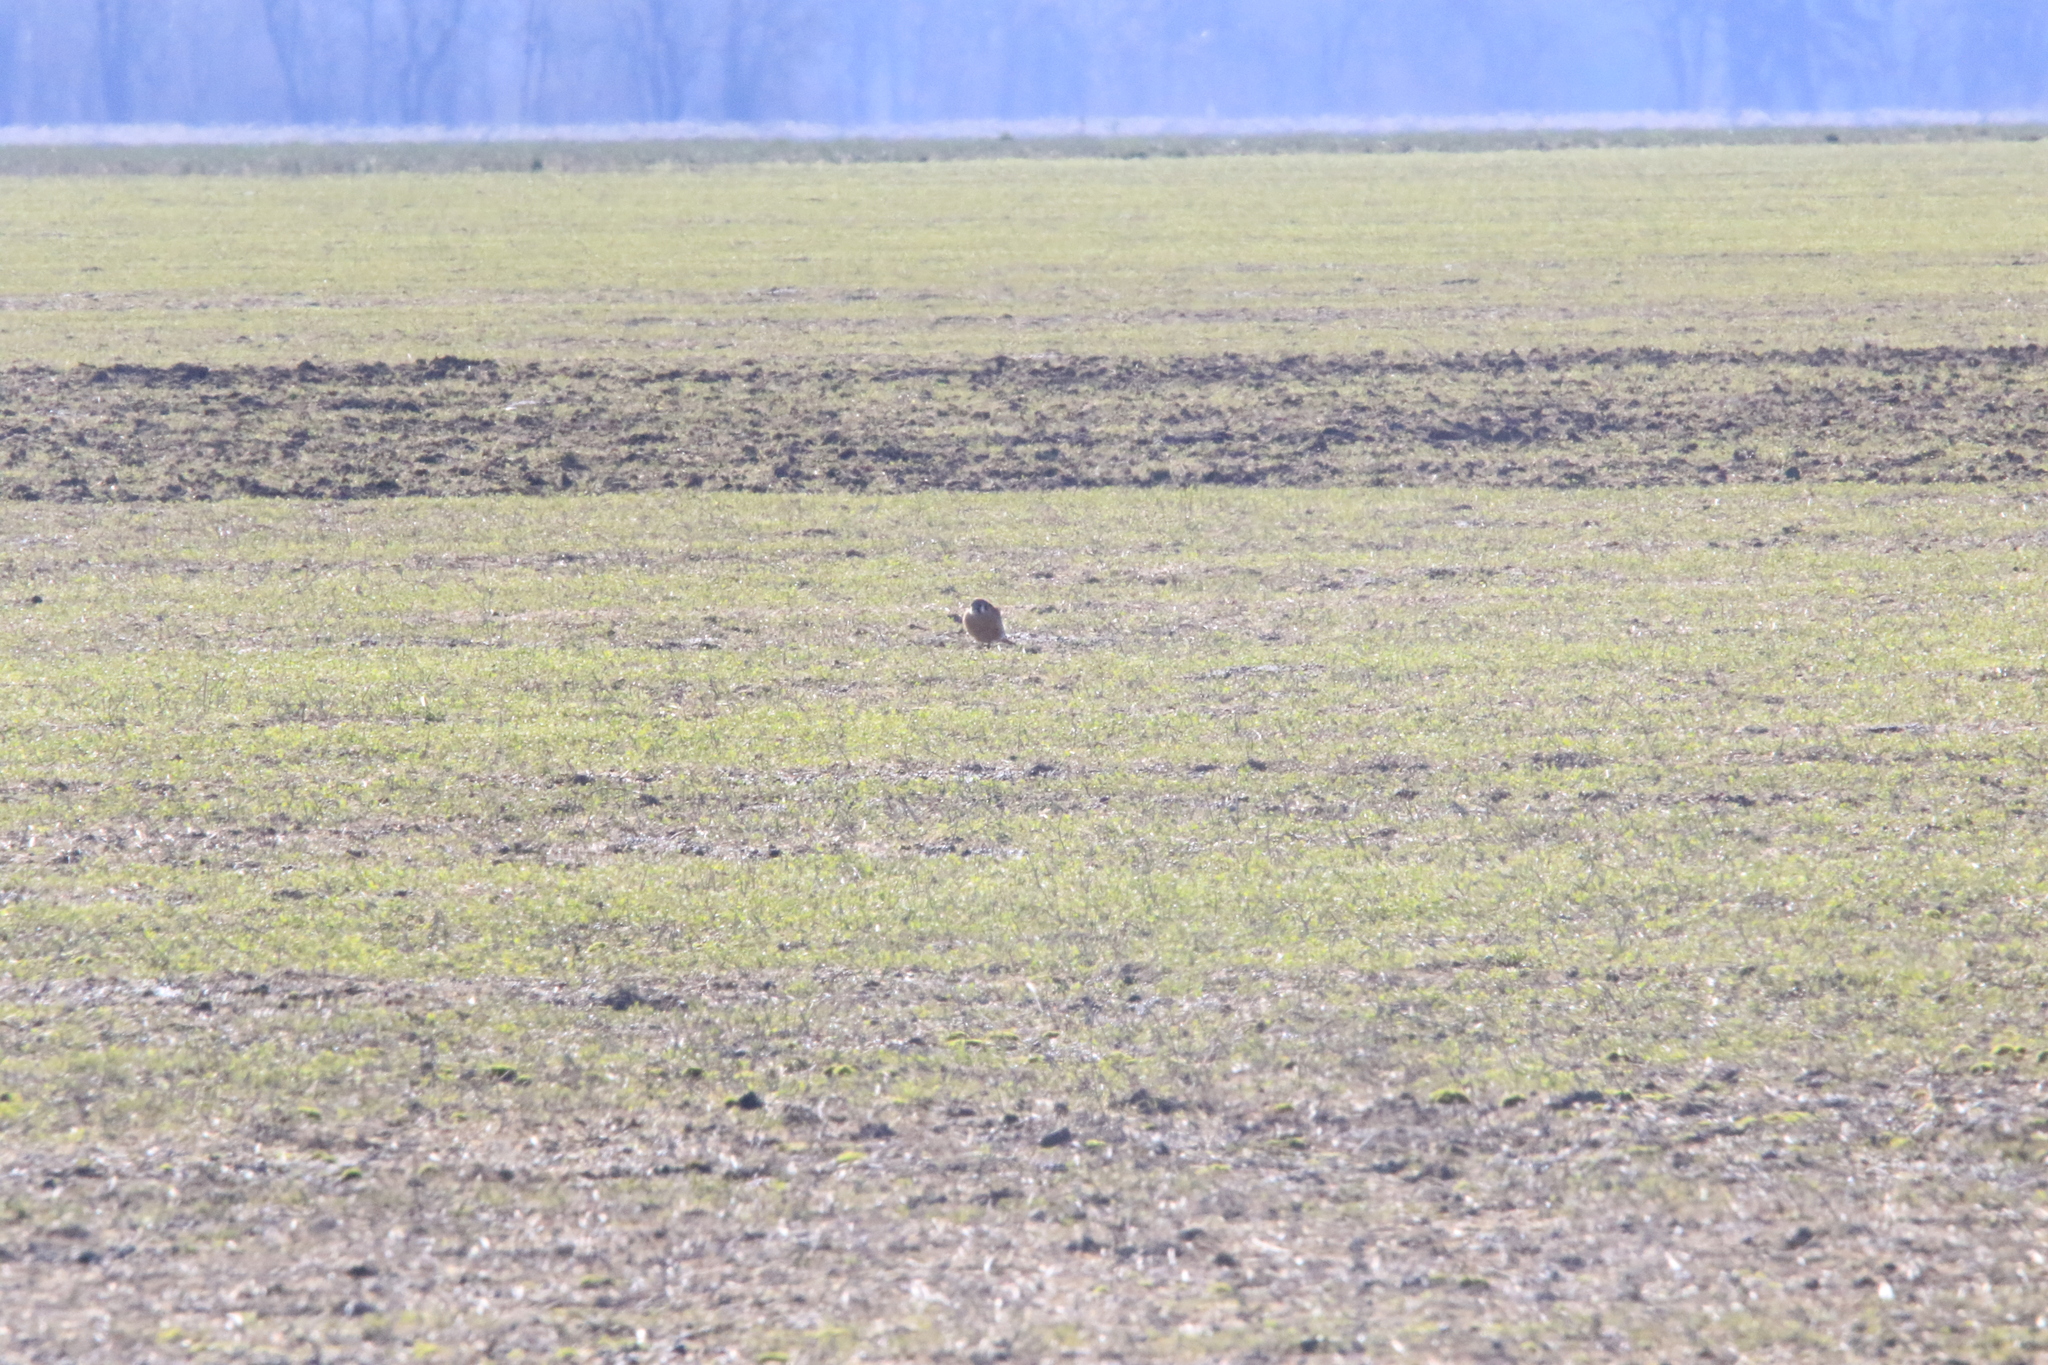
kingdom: Animalia
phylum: Chordata
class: Aves
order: Falconiformes
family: Falconidae
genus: Falco
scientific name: Falco sparverius
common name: American kestrel
